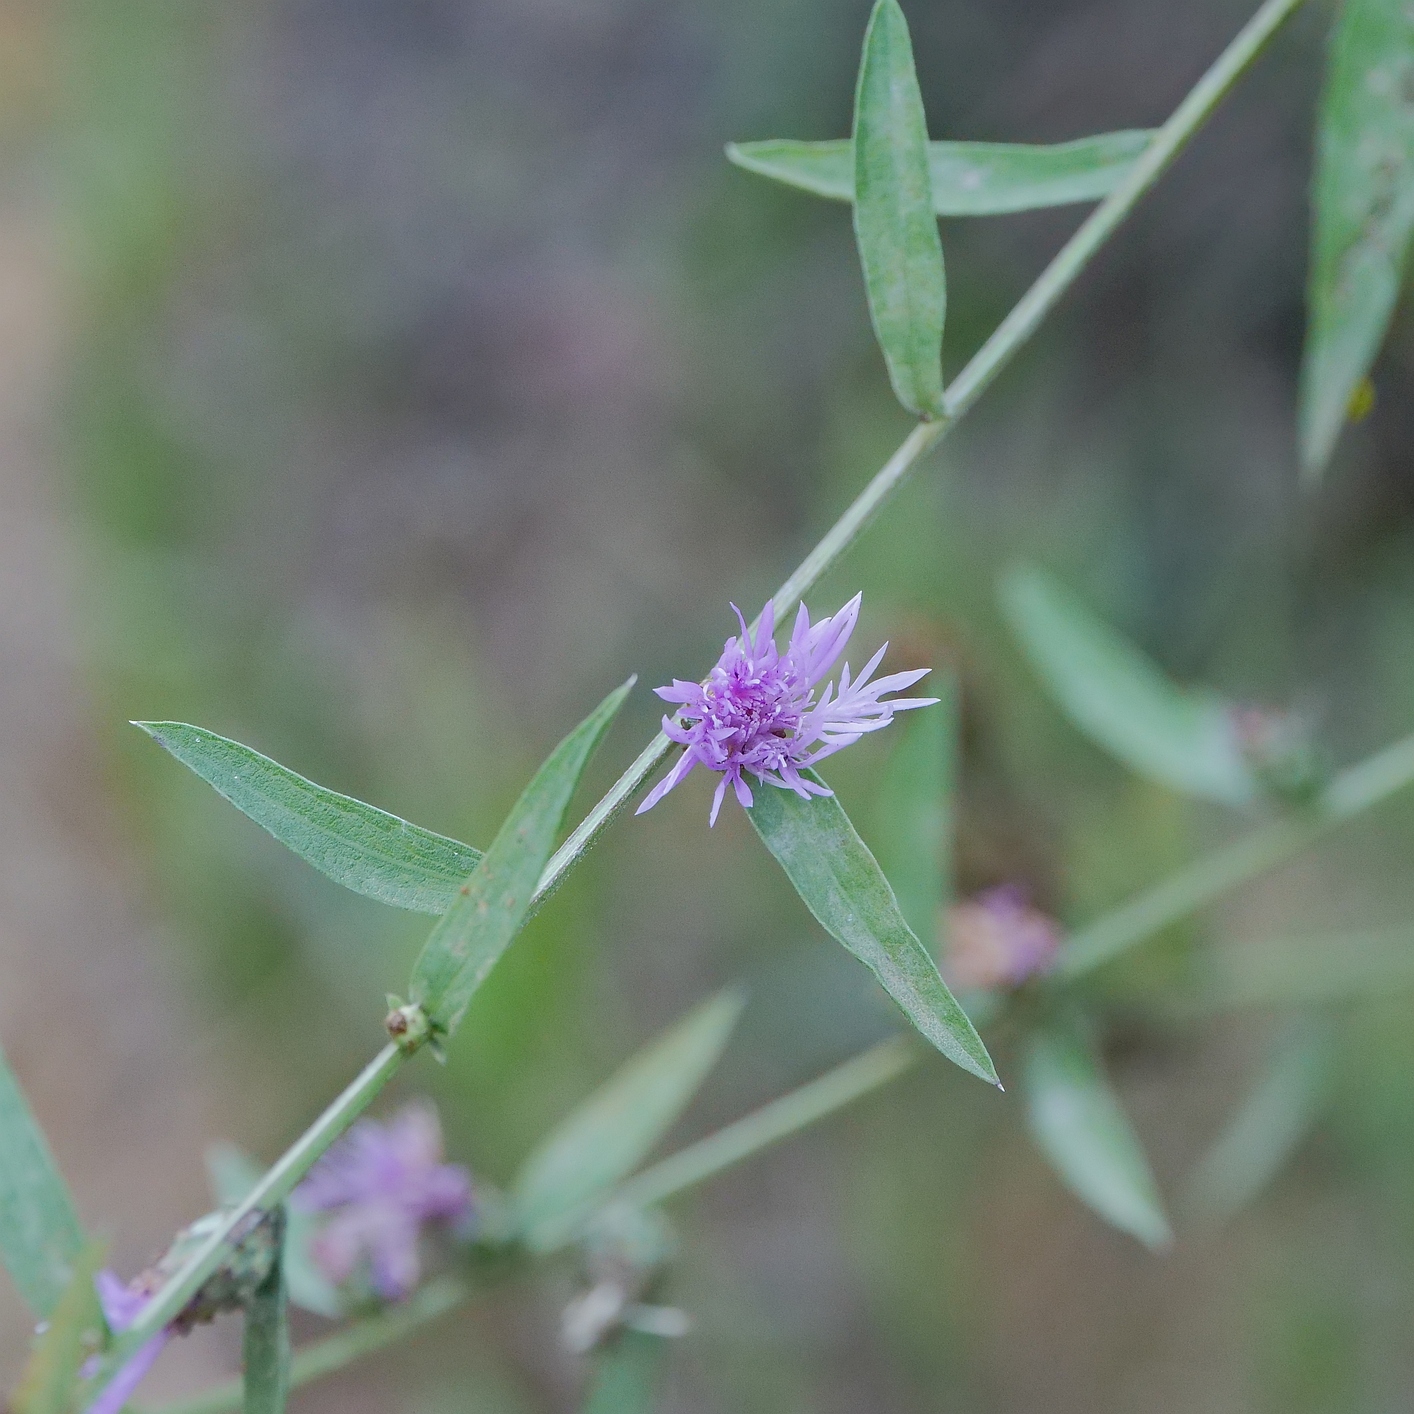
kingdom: Plantae
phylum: Tracheophyta
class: Magnoliopsida
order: Asterales
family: Asteraceae
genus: Centaurea
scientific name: Centaurea nigrescens
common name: Tyrol knapweed
